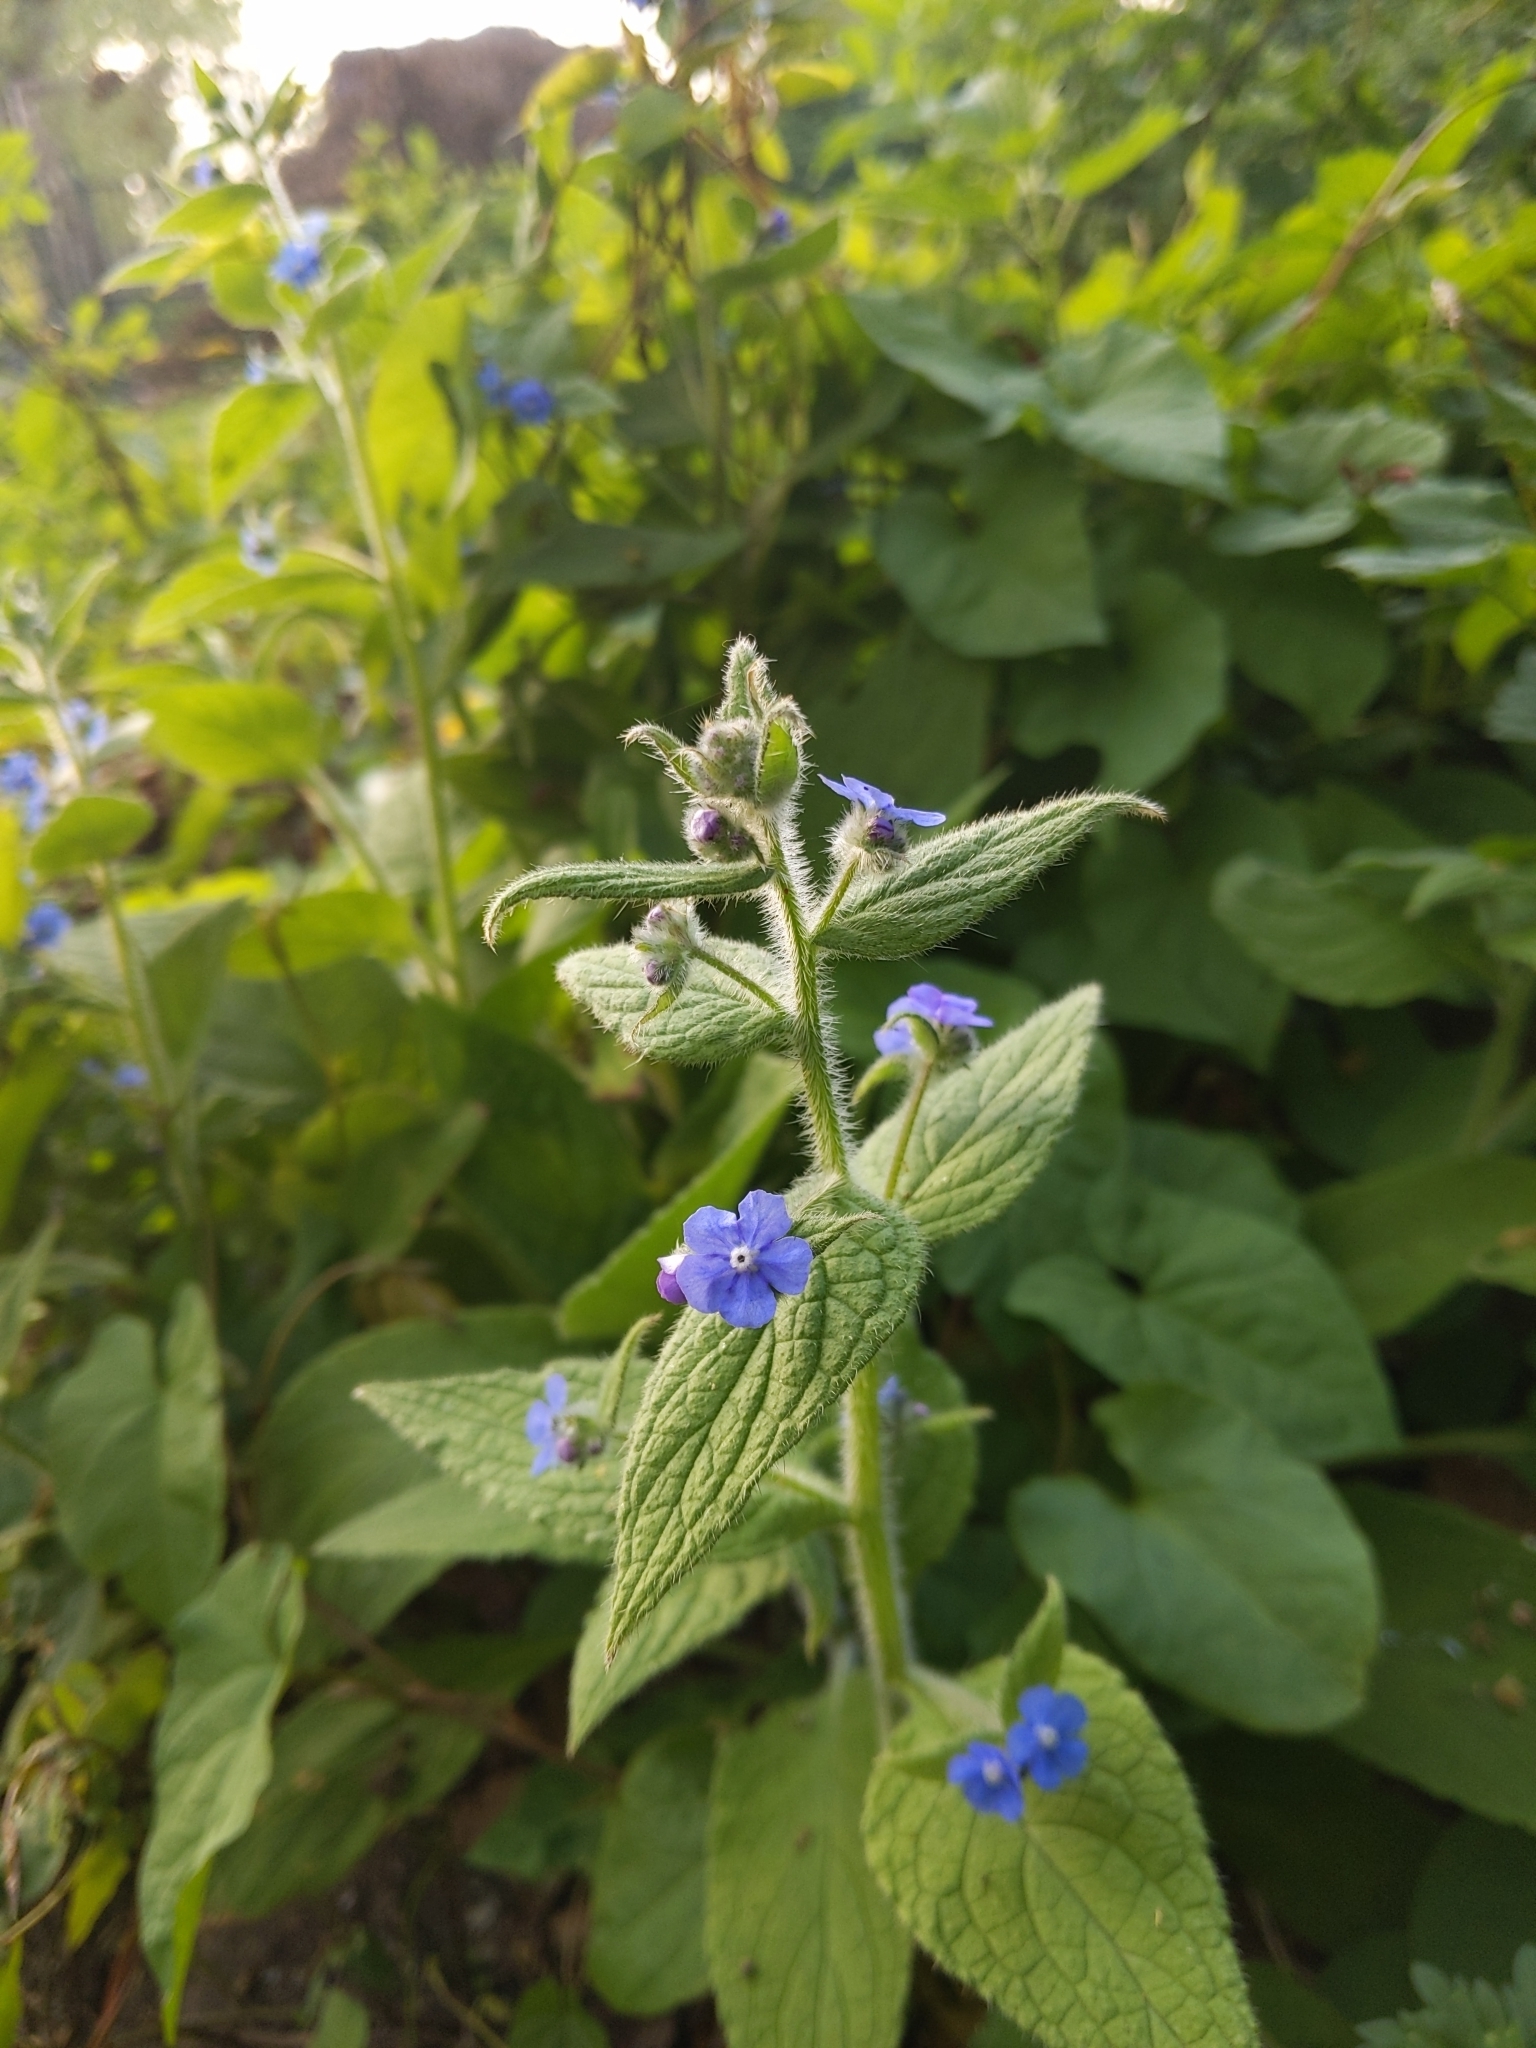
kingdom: Plantae
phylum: Tracheophyta
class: Magnoliopsida
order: Boraginales
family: Boraginaceae
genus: Pentaglottis
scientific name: Pentaglottis sempervirens
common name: Green alkanet
